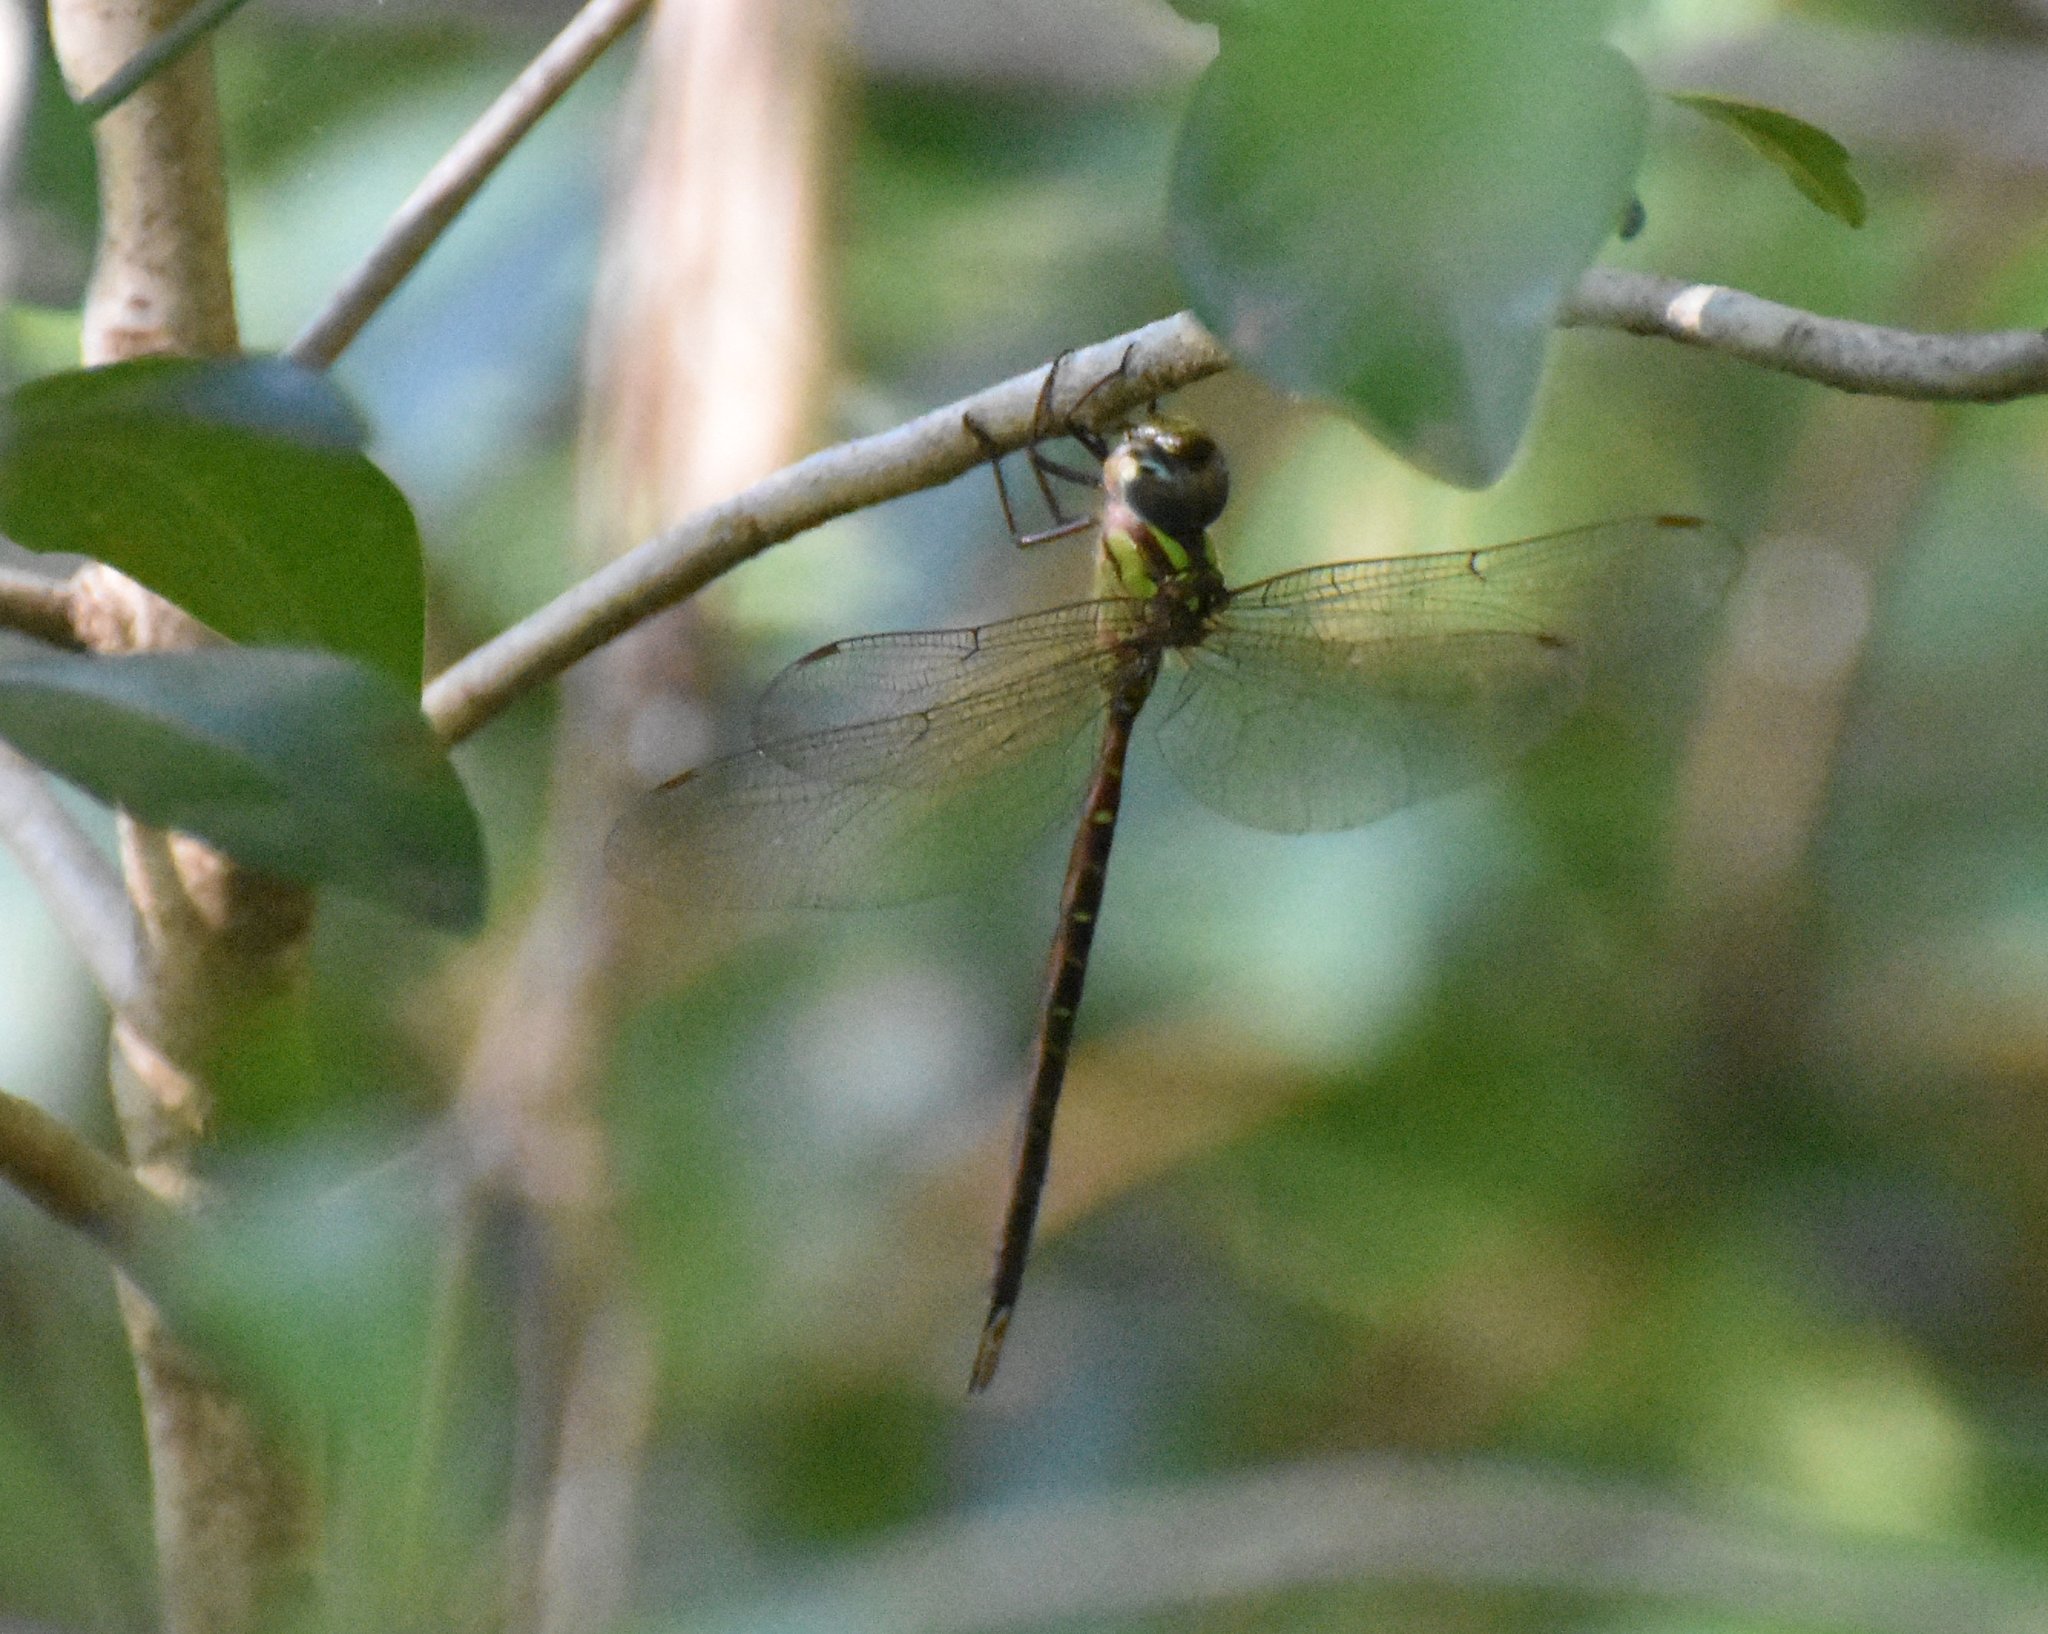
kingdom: Animalia
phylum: Arthropoda
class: Insecta
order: Odonata
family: Aeshnidae
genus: Triacanthagyna
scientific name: Triacanthagyna trifida
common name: Phantom darner
